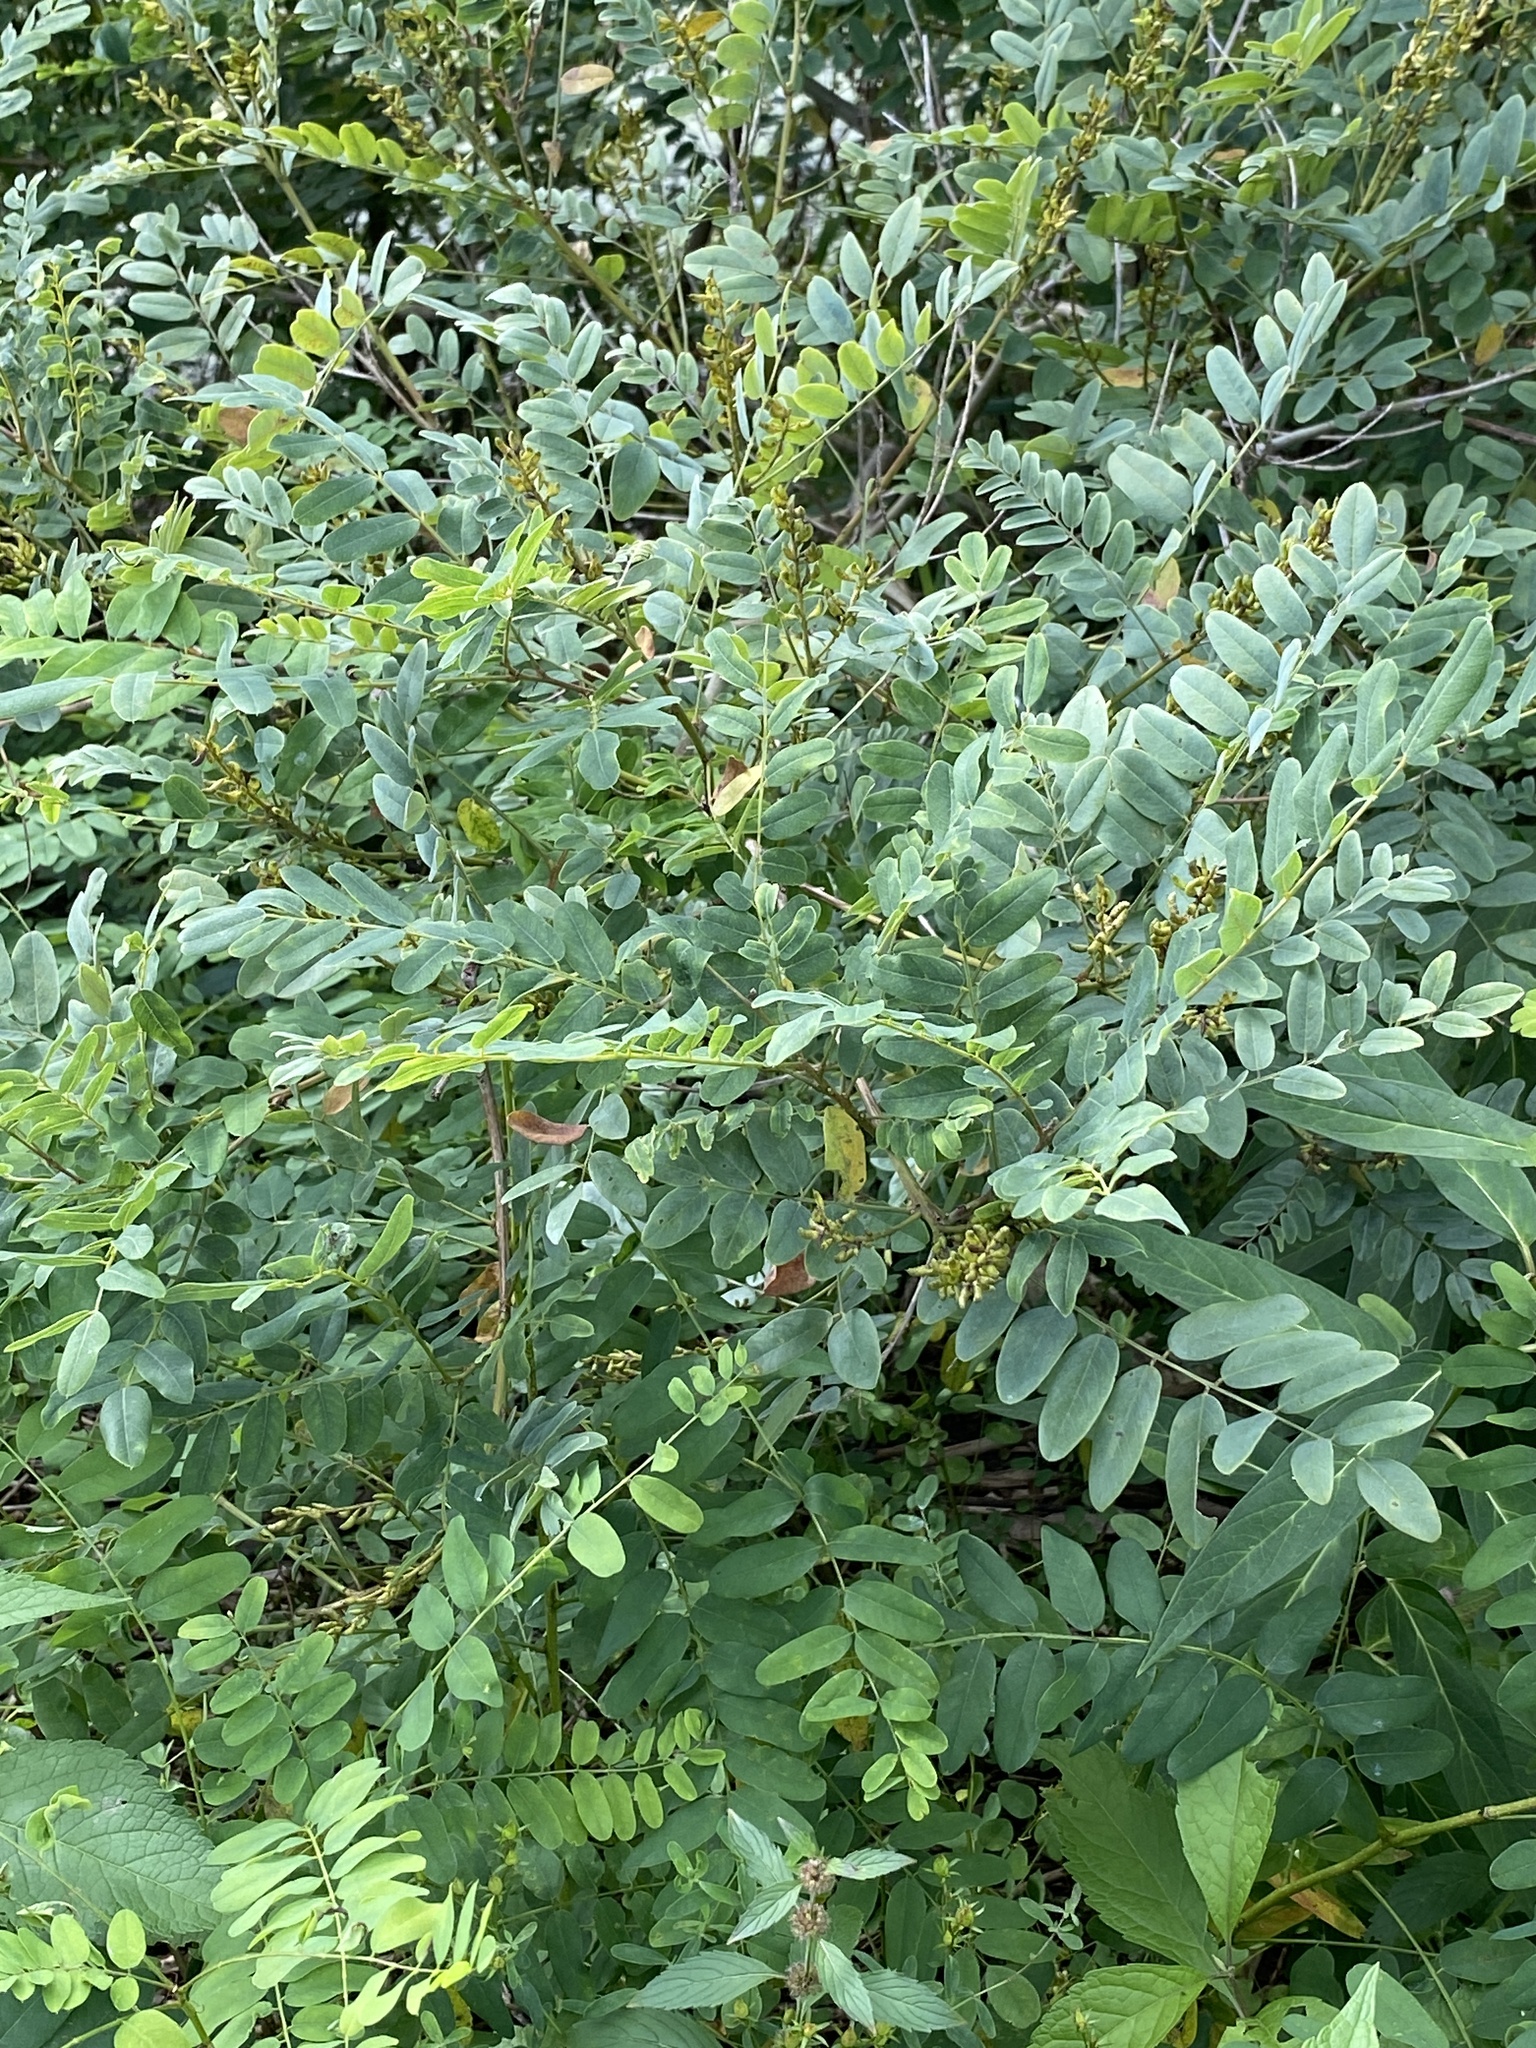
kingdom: Plantae
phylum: Tracheophyta
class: Magnoliopsida
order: Fabales
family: Fabaceae
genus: Amorpha
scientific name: Amorpha fruticosa
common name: False indigo
